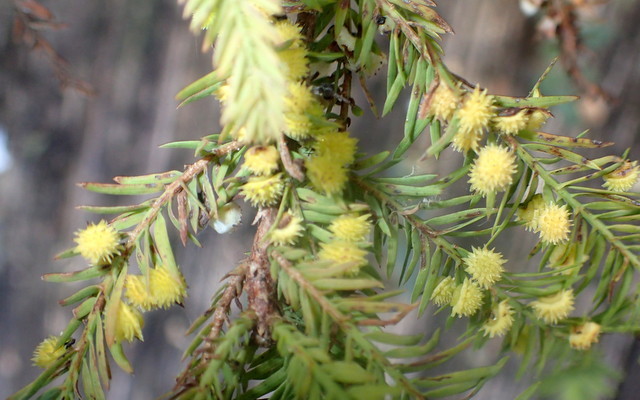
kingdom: Animalia
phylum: Arthropoda
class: Insecta
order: Diptera
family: Cecidomyiidae
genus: Taxodiomyia
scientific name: Taxodiomyia
